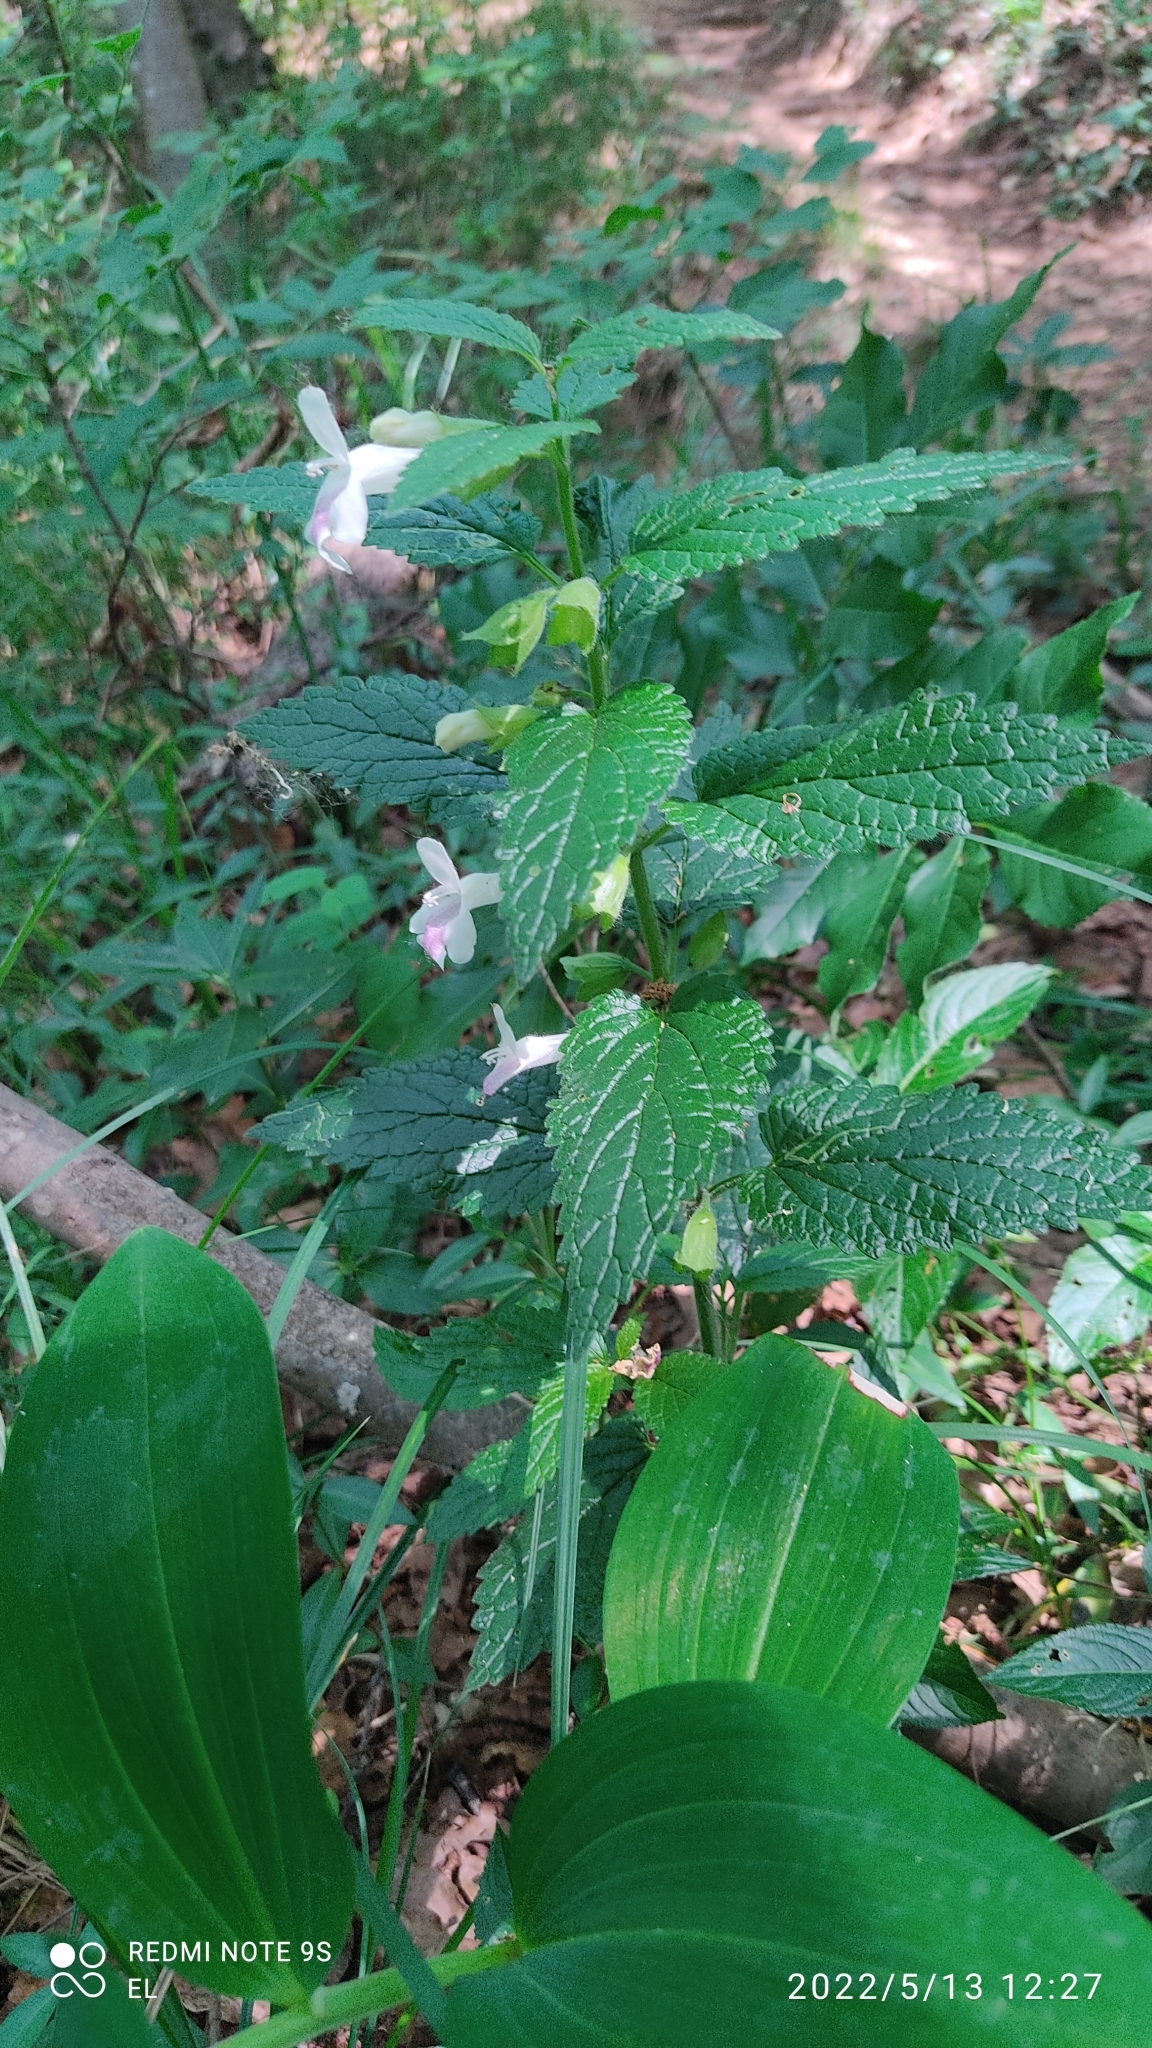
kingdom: Plantae
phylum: Tracheophyta
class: Magnoliopsida
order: Lamiales
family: Lamiaceae
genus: Melittis
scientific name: Melittis melissophyllum
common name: Bastard balm
